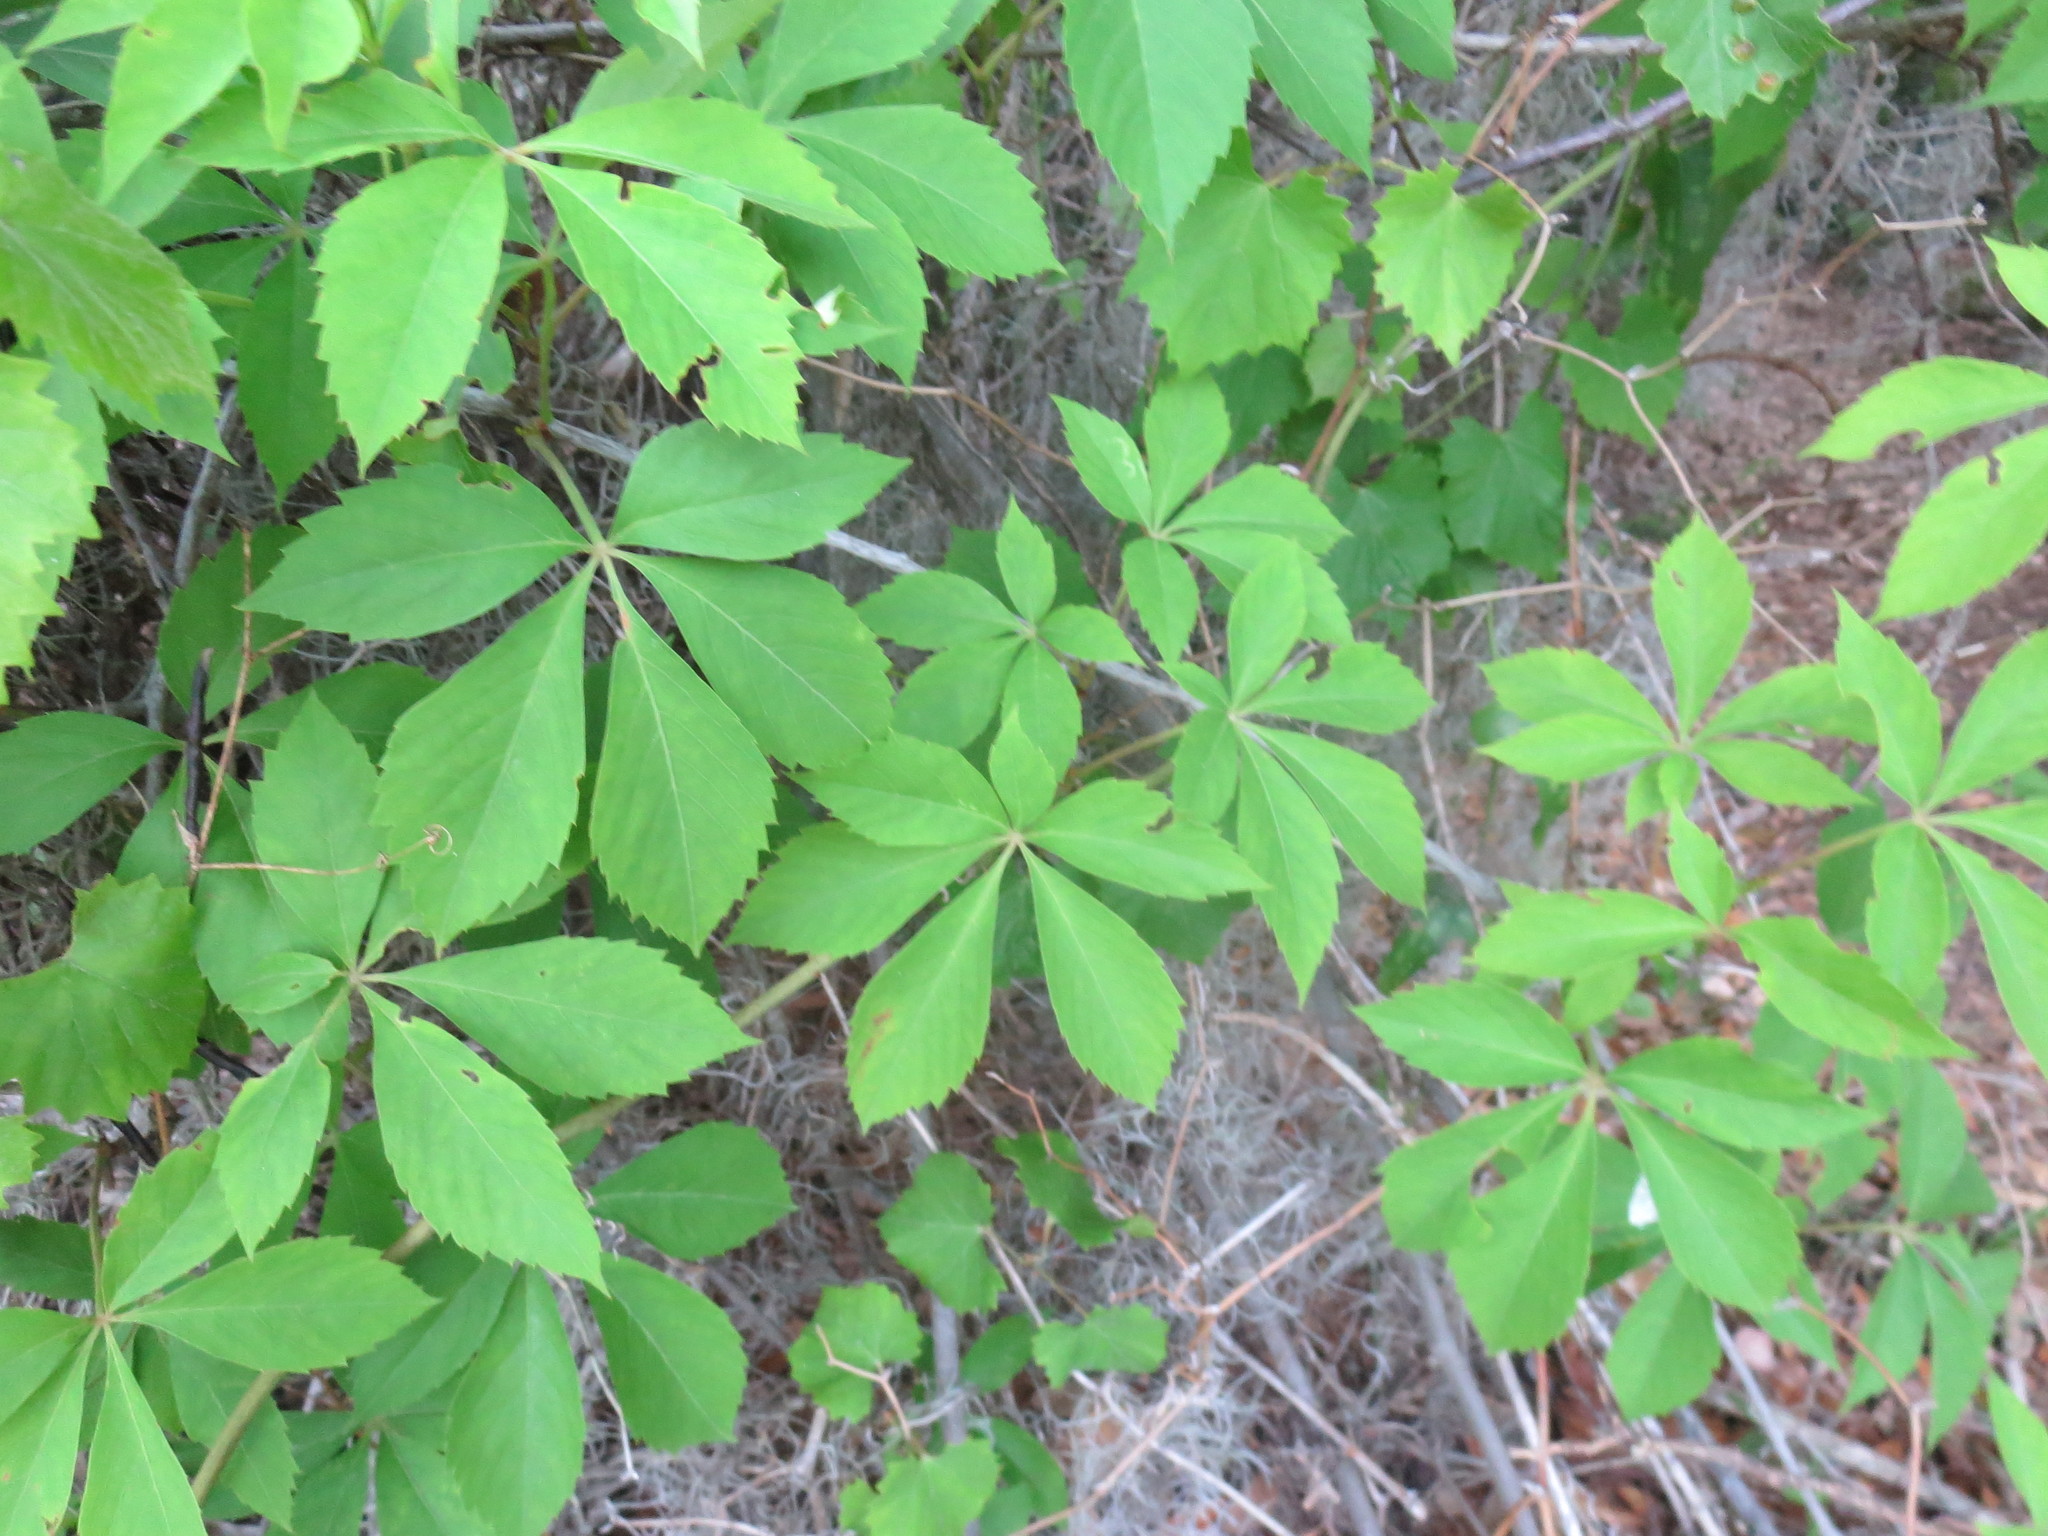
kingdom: Plantae
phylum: Tracheophyta
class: Magnoliopsida
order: Vitales
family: Vitaceae
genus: Parthenocissus
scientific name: Parthenocissus quinquefolia
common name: Virginia-creeper
